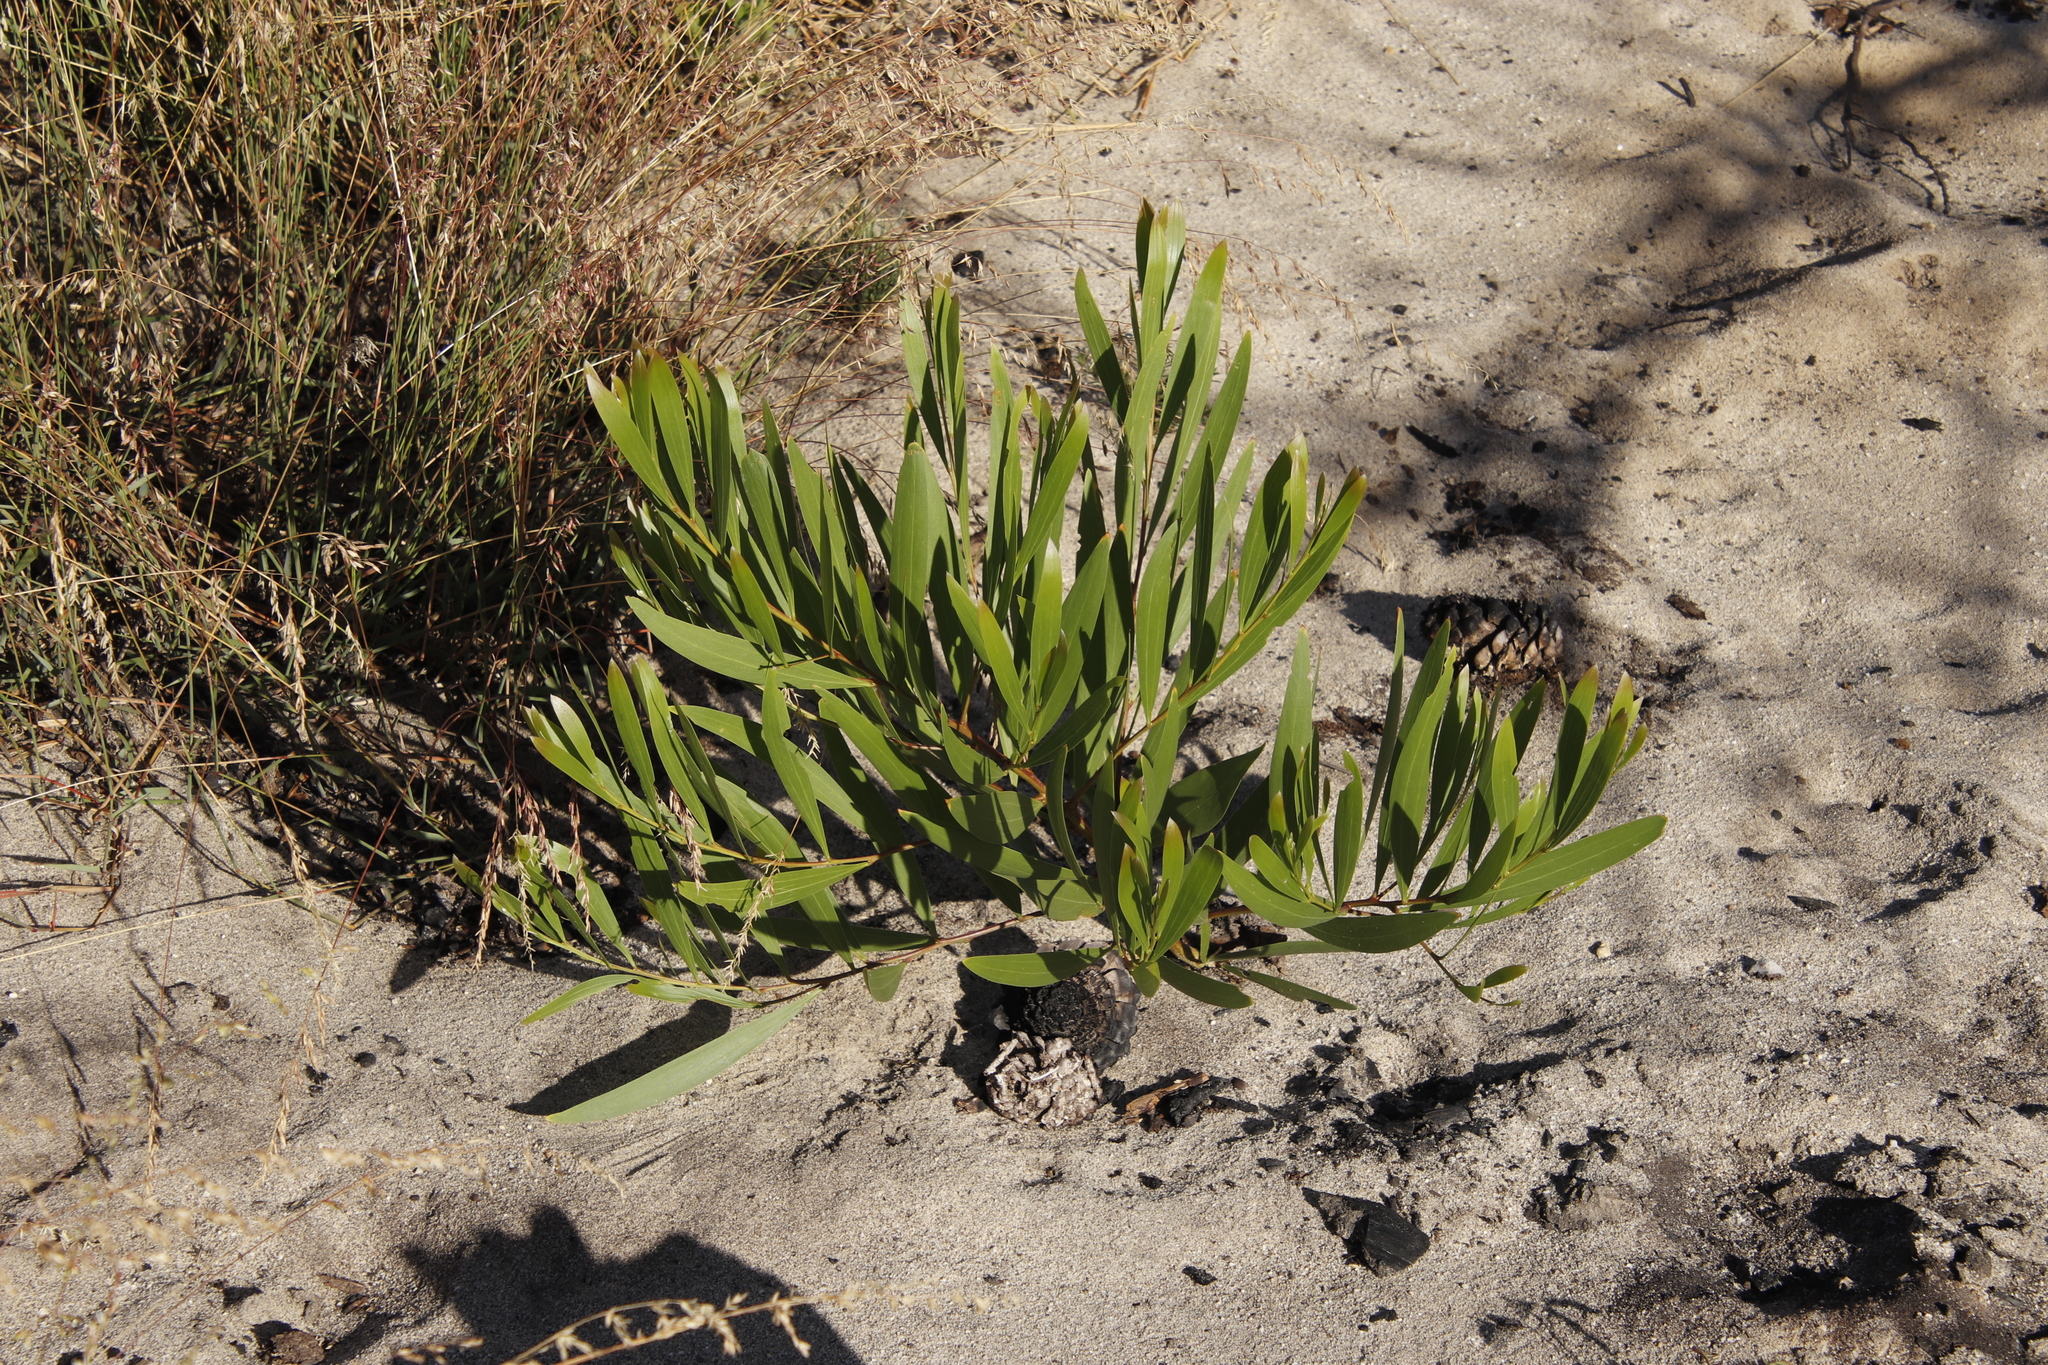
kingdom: Plantae
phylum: Tracheophyta
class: Magnoliopsida
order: Fabales
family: Fabaceae
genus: Acacia
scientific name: Acacia longifolia
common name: Sydney golden wattle
